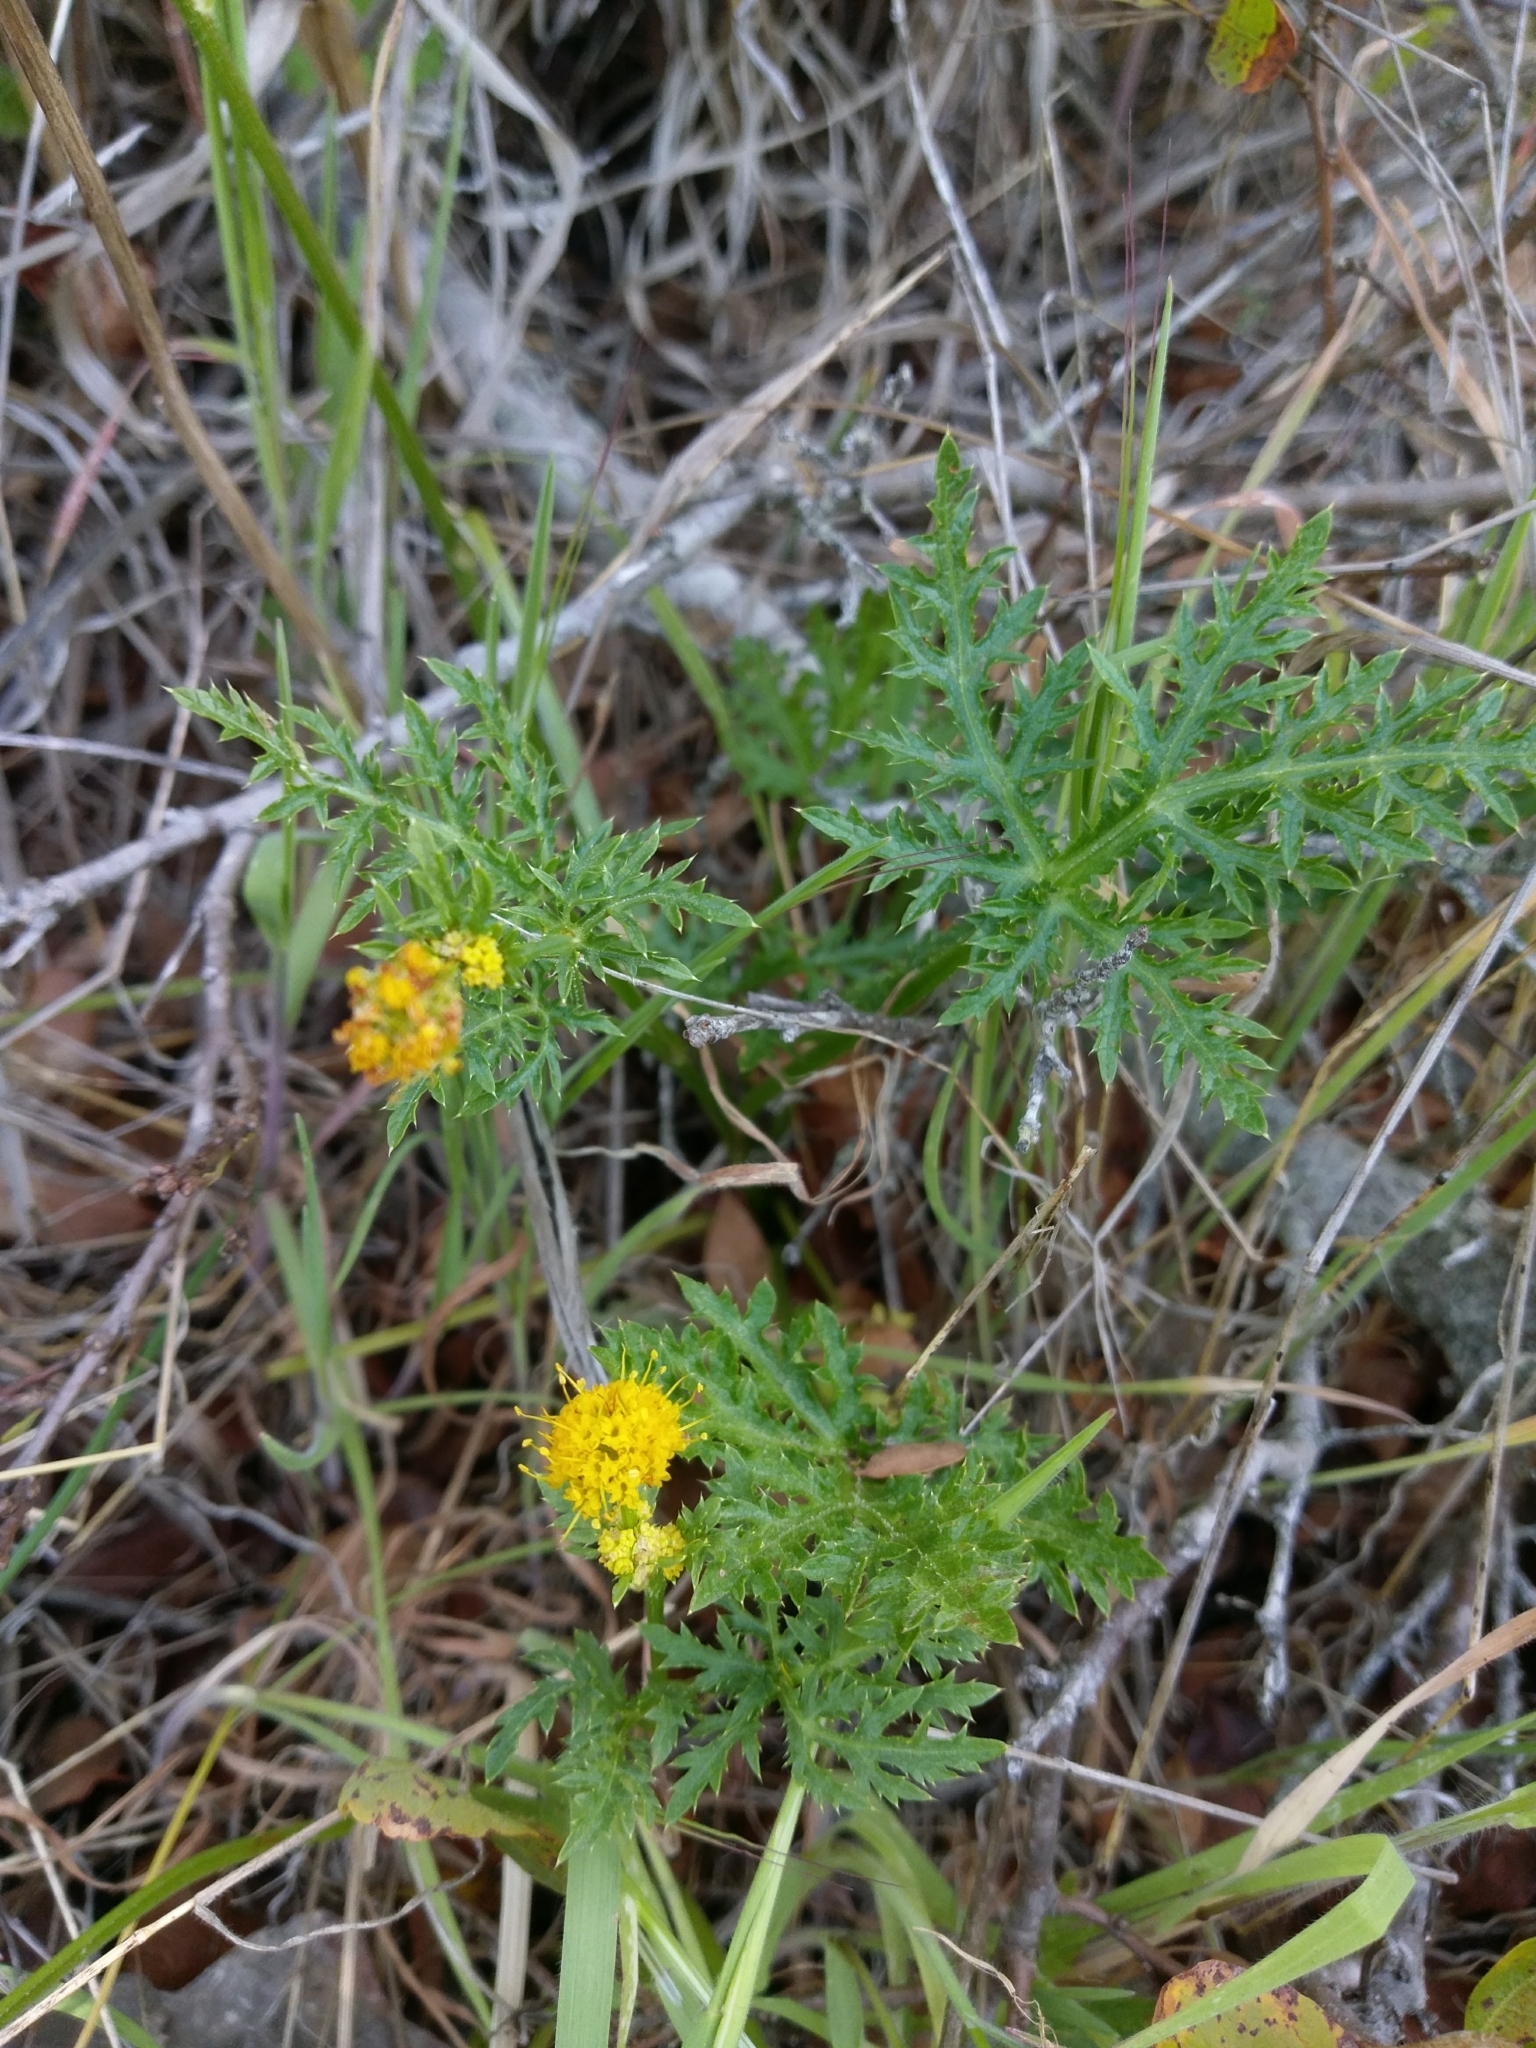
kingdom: Plantae
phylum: Tracheophyta
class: Magnoliopsida
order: Apiales
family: Apiaceae
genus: Sanicula
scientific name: Sanicula arguta
